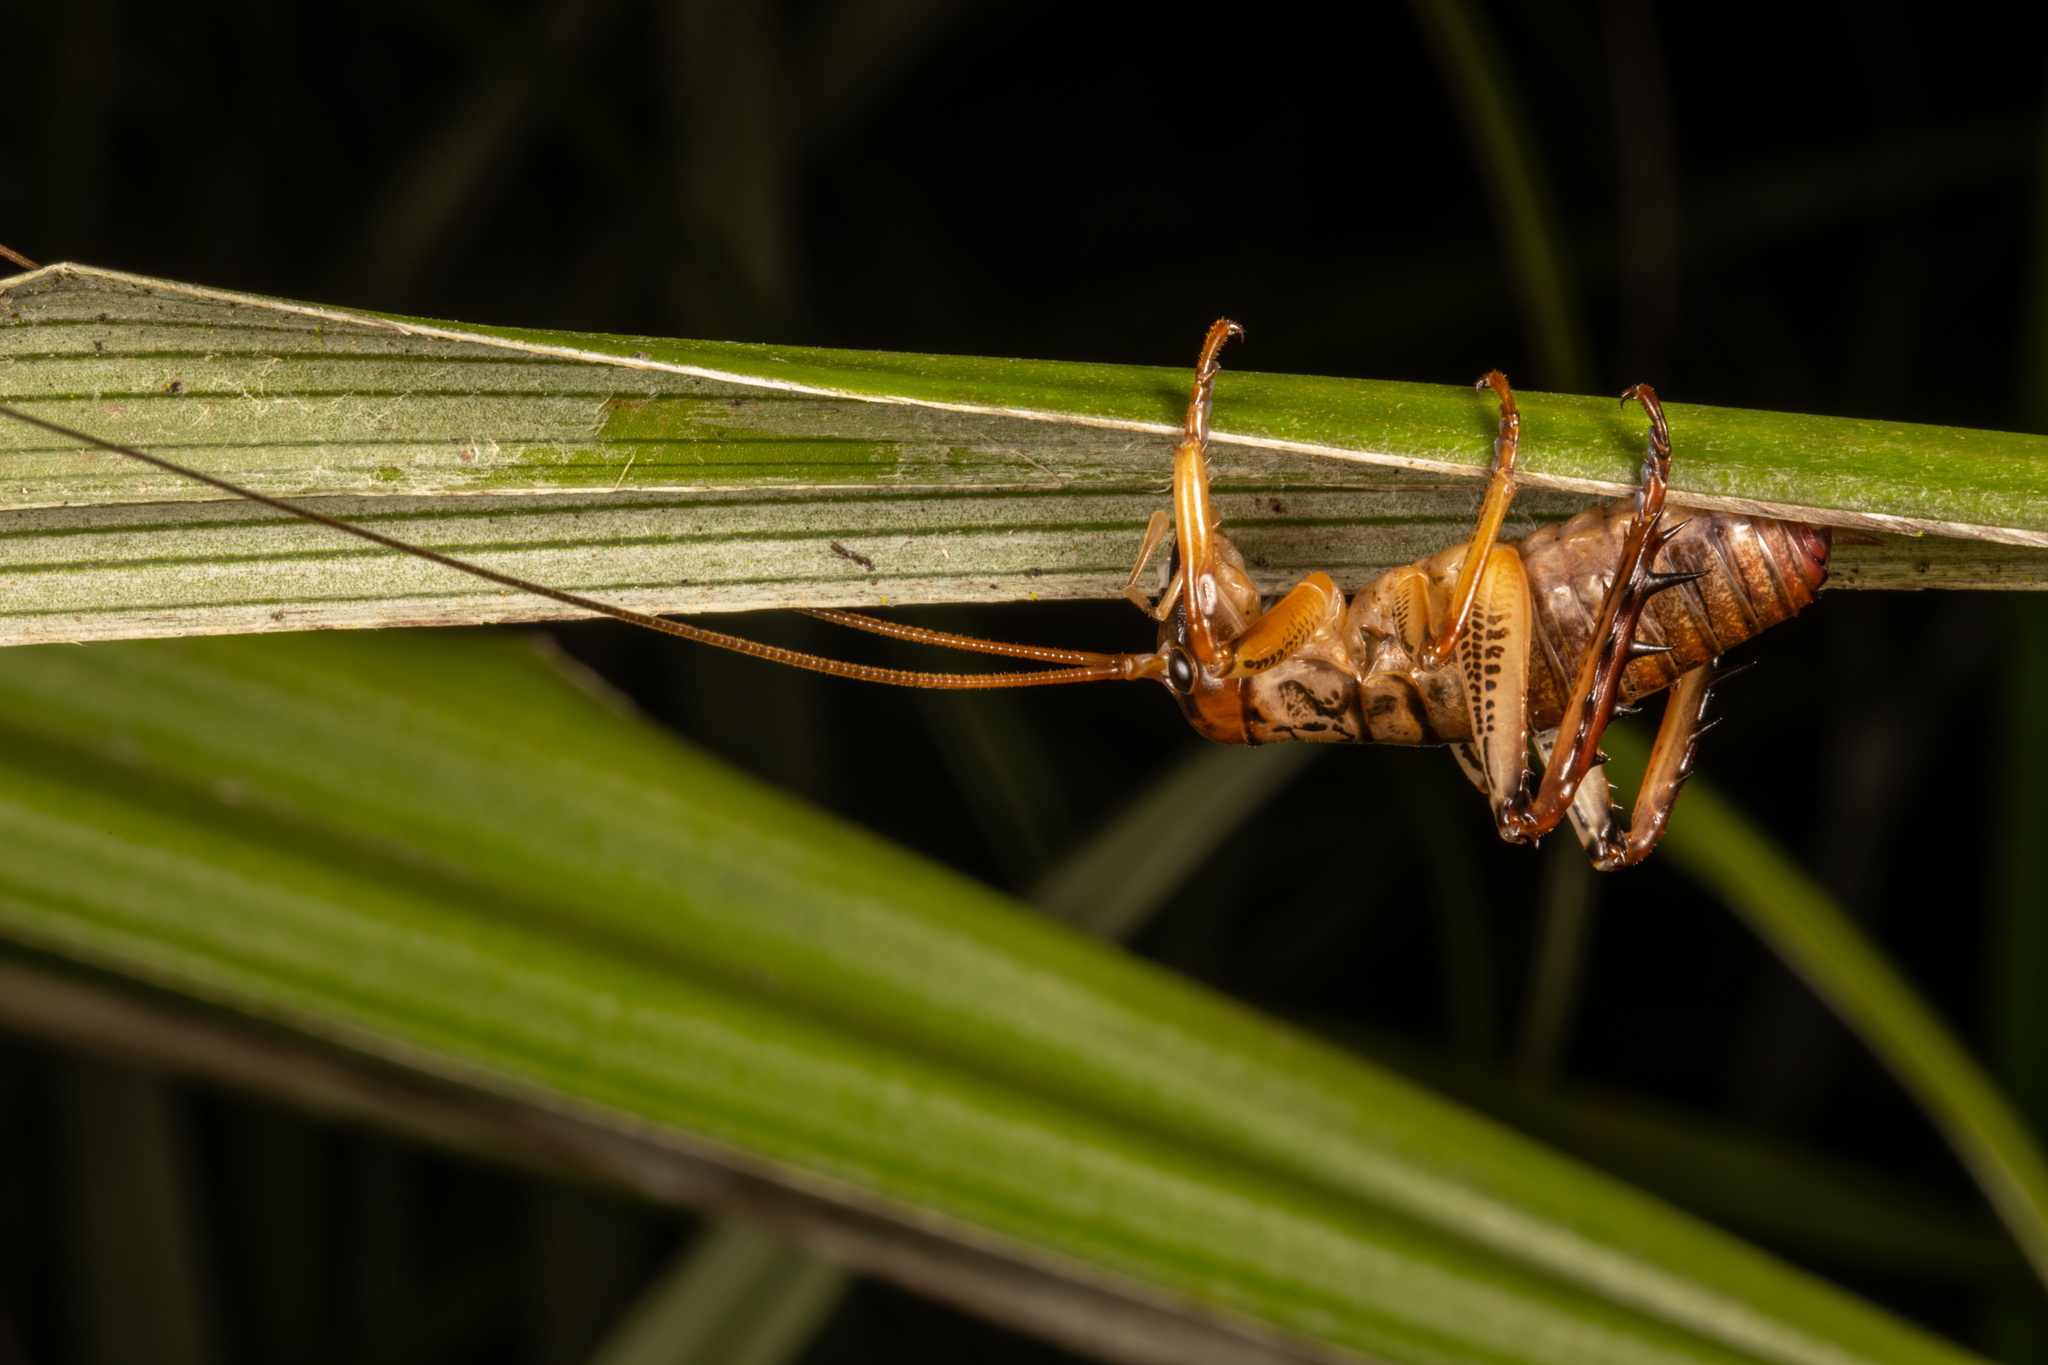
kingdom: Animalia
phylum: Arthropoda
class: Insecta
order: Orthoptera
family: Anostostomatidae
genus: Hemideina
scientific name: Hemideina thoracica
